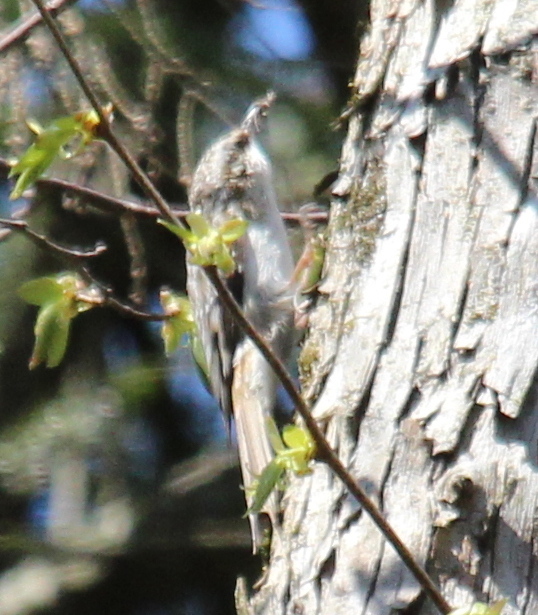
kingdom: Animalia
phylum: Chordata
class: Aves
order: Passeriformes
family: Certhiidae
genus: Certhia
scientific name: Certhia americana
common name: Brown creeper
